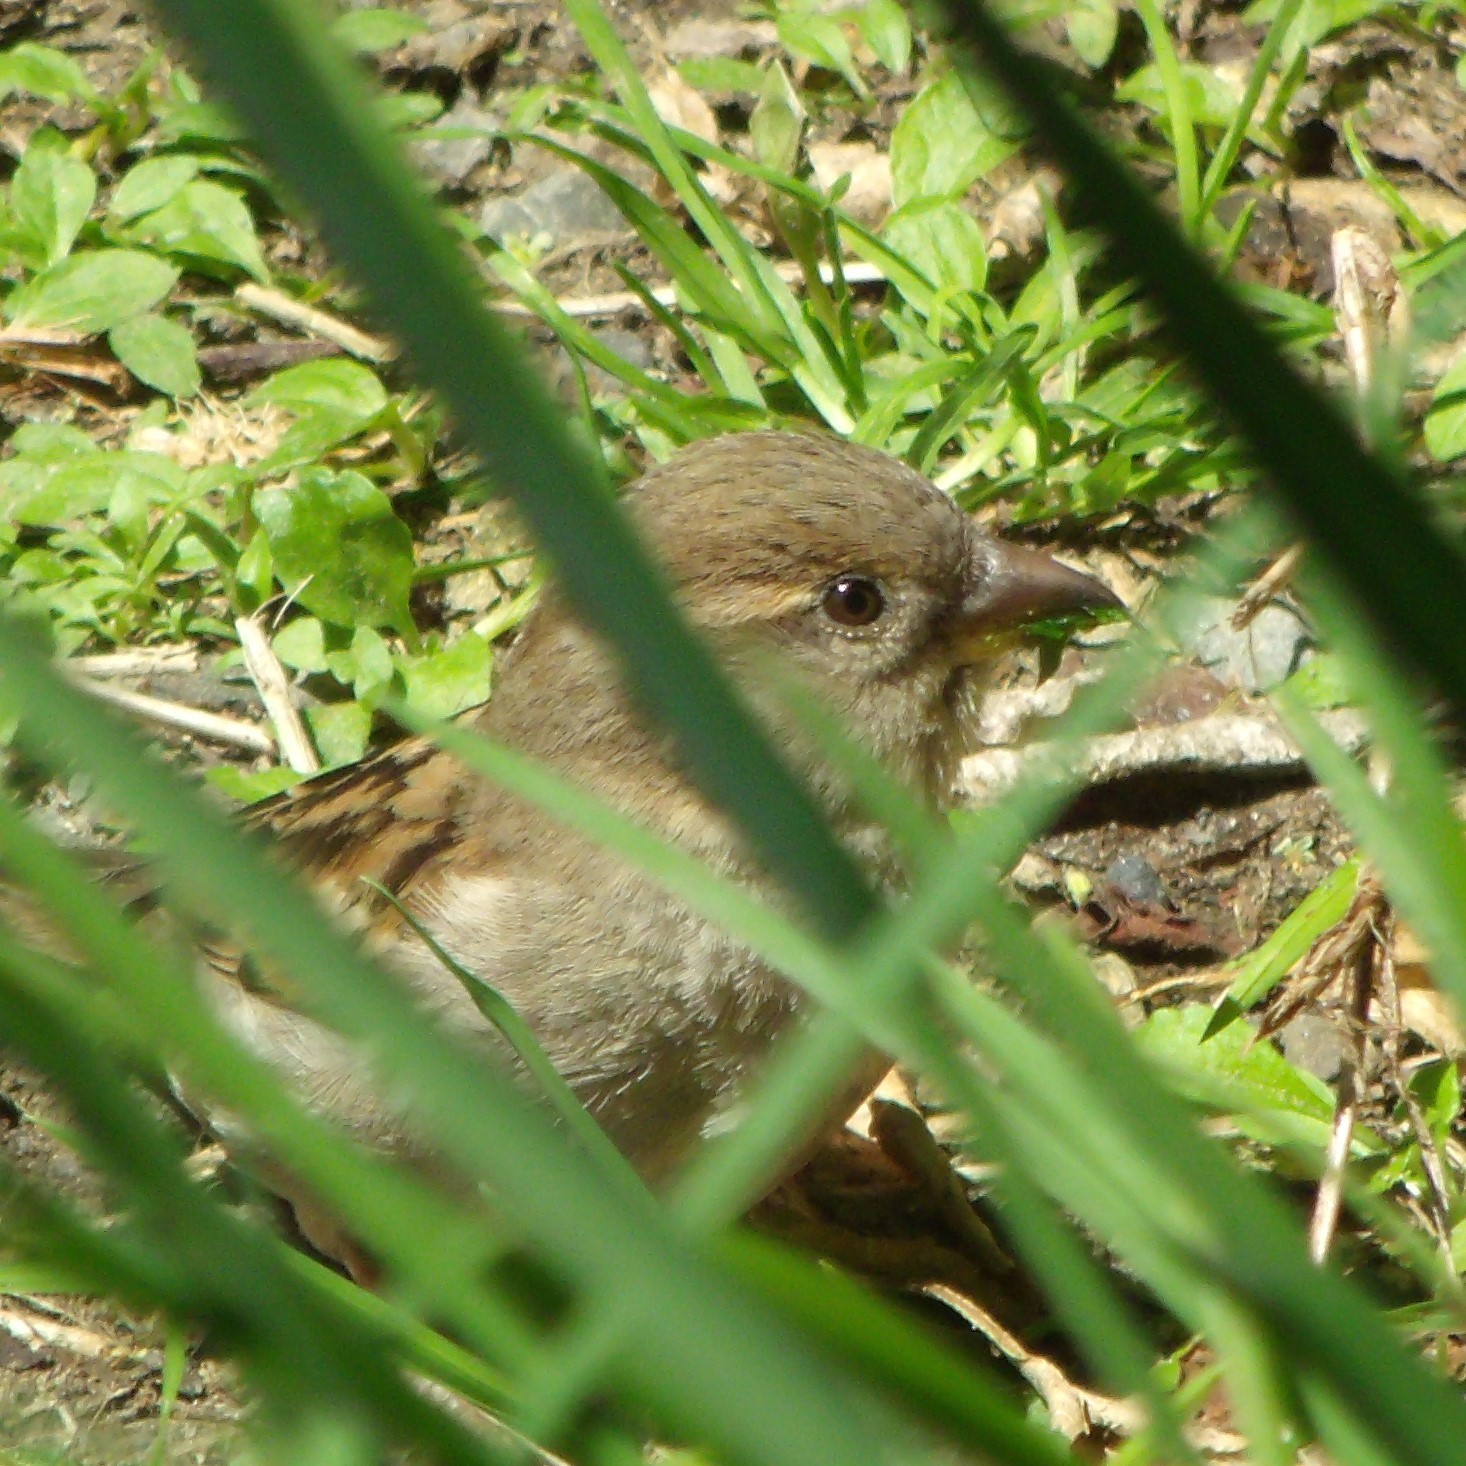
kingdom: Animalia
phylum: Chordata
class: Aves
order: Passeriformes
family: Passeridae
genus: Passer
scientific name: Passer domesticus
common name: House sparrow
